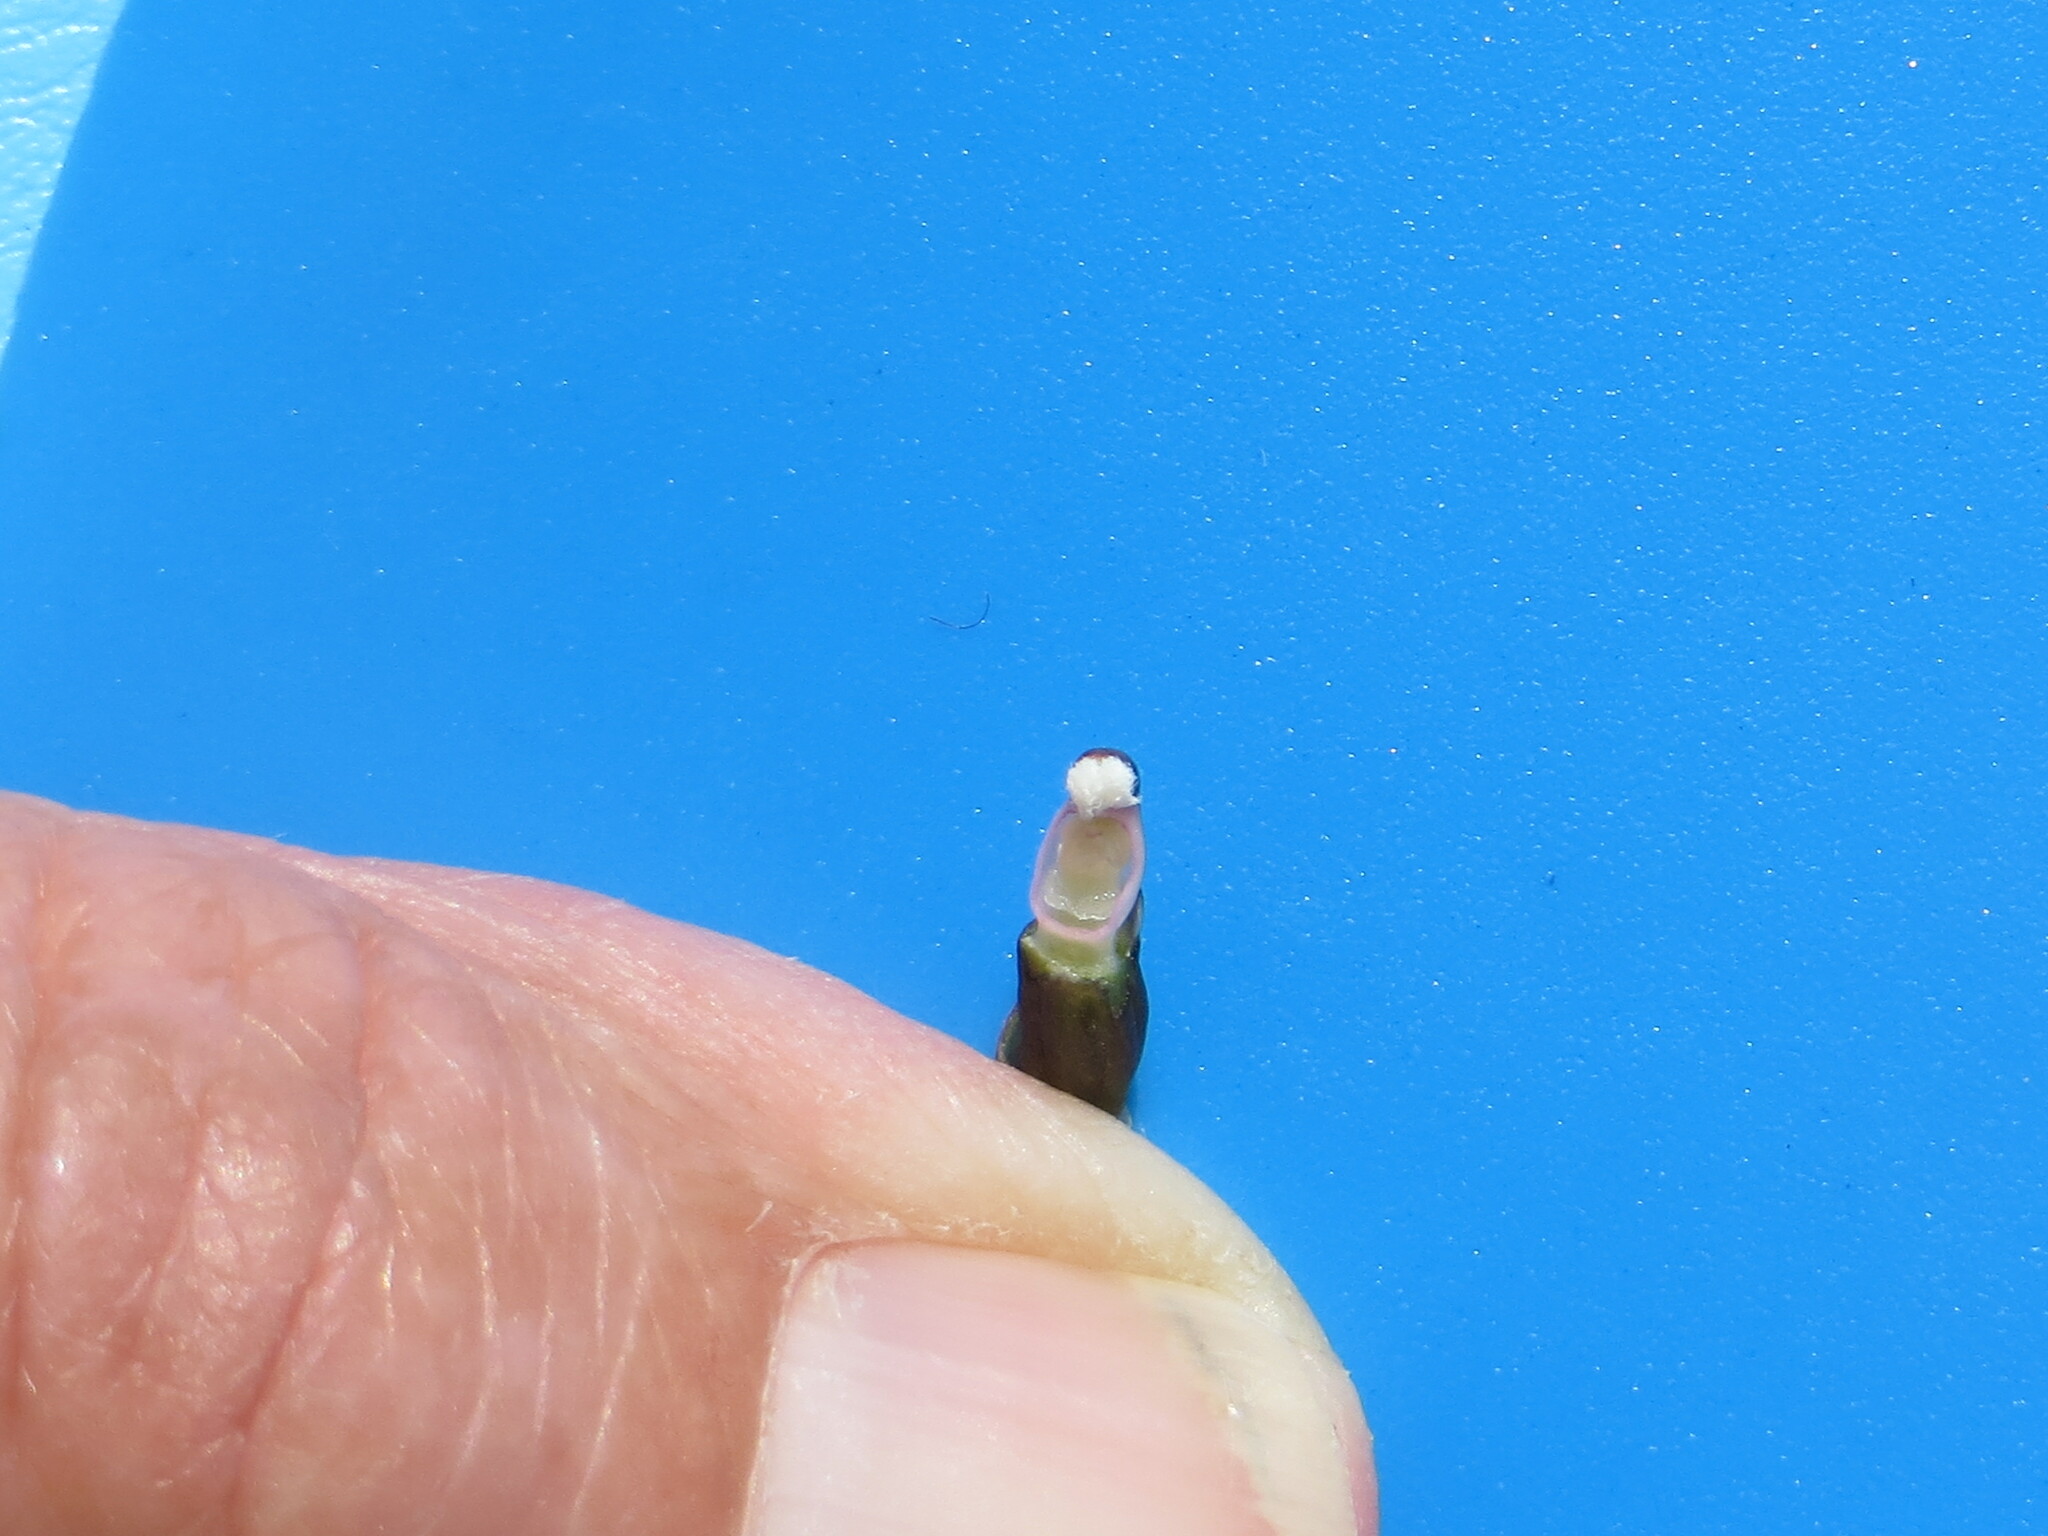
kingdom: Plantae
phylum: Tracheophyta
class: Liliopsida
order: Asparagales
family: Orchidaceae
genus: Thelymitra
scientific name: Thelymitra longifolia
